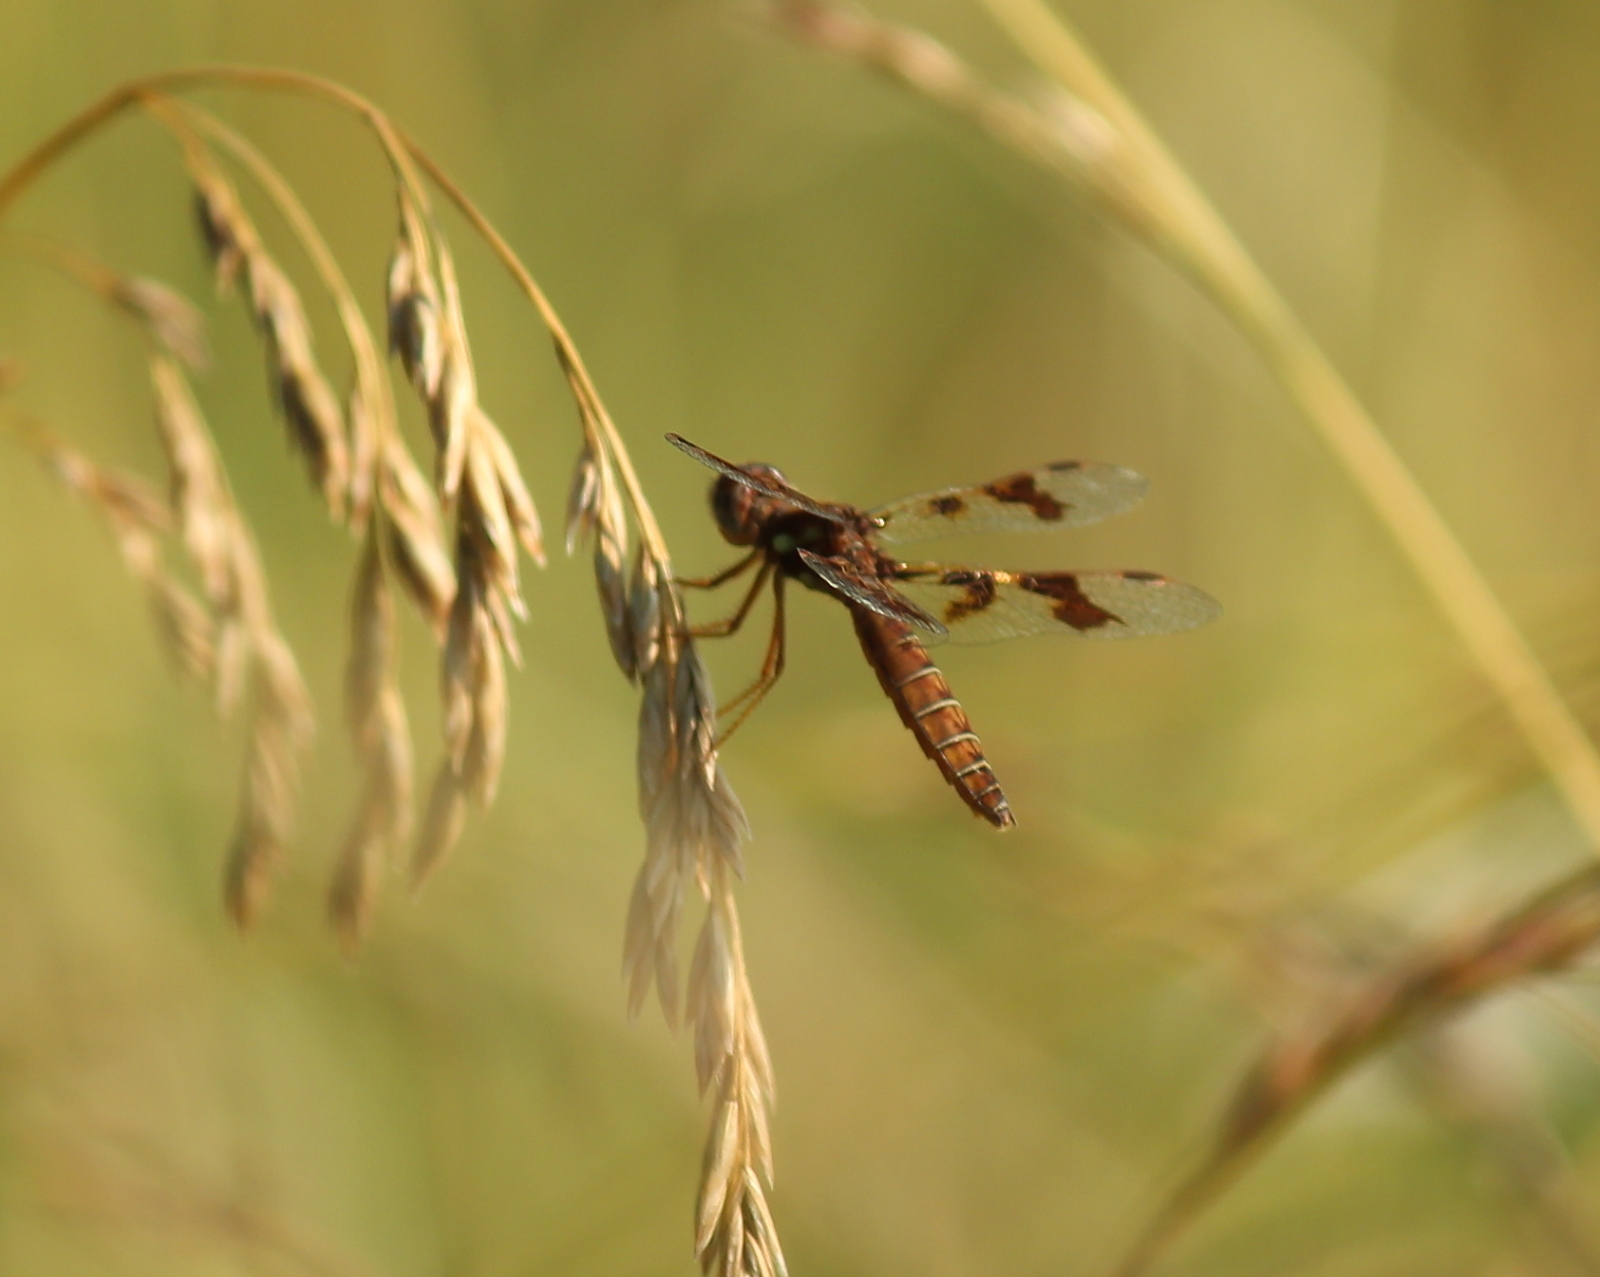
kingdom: Animalia
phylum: Arthropoda
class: Insecta
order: Odonata
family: Libellulidae
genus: Perithemis
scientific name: Perithemis tenera
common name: Eastern amberwing
